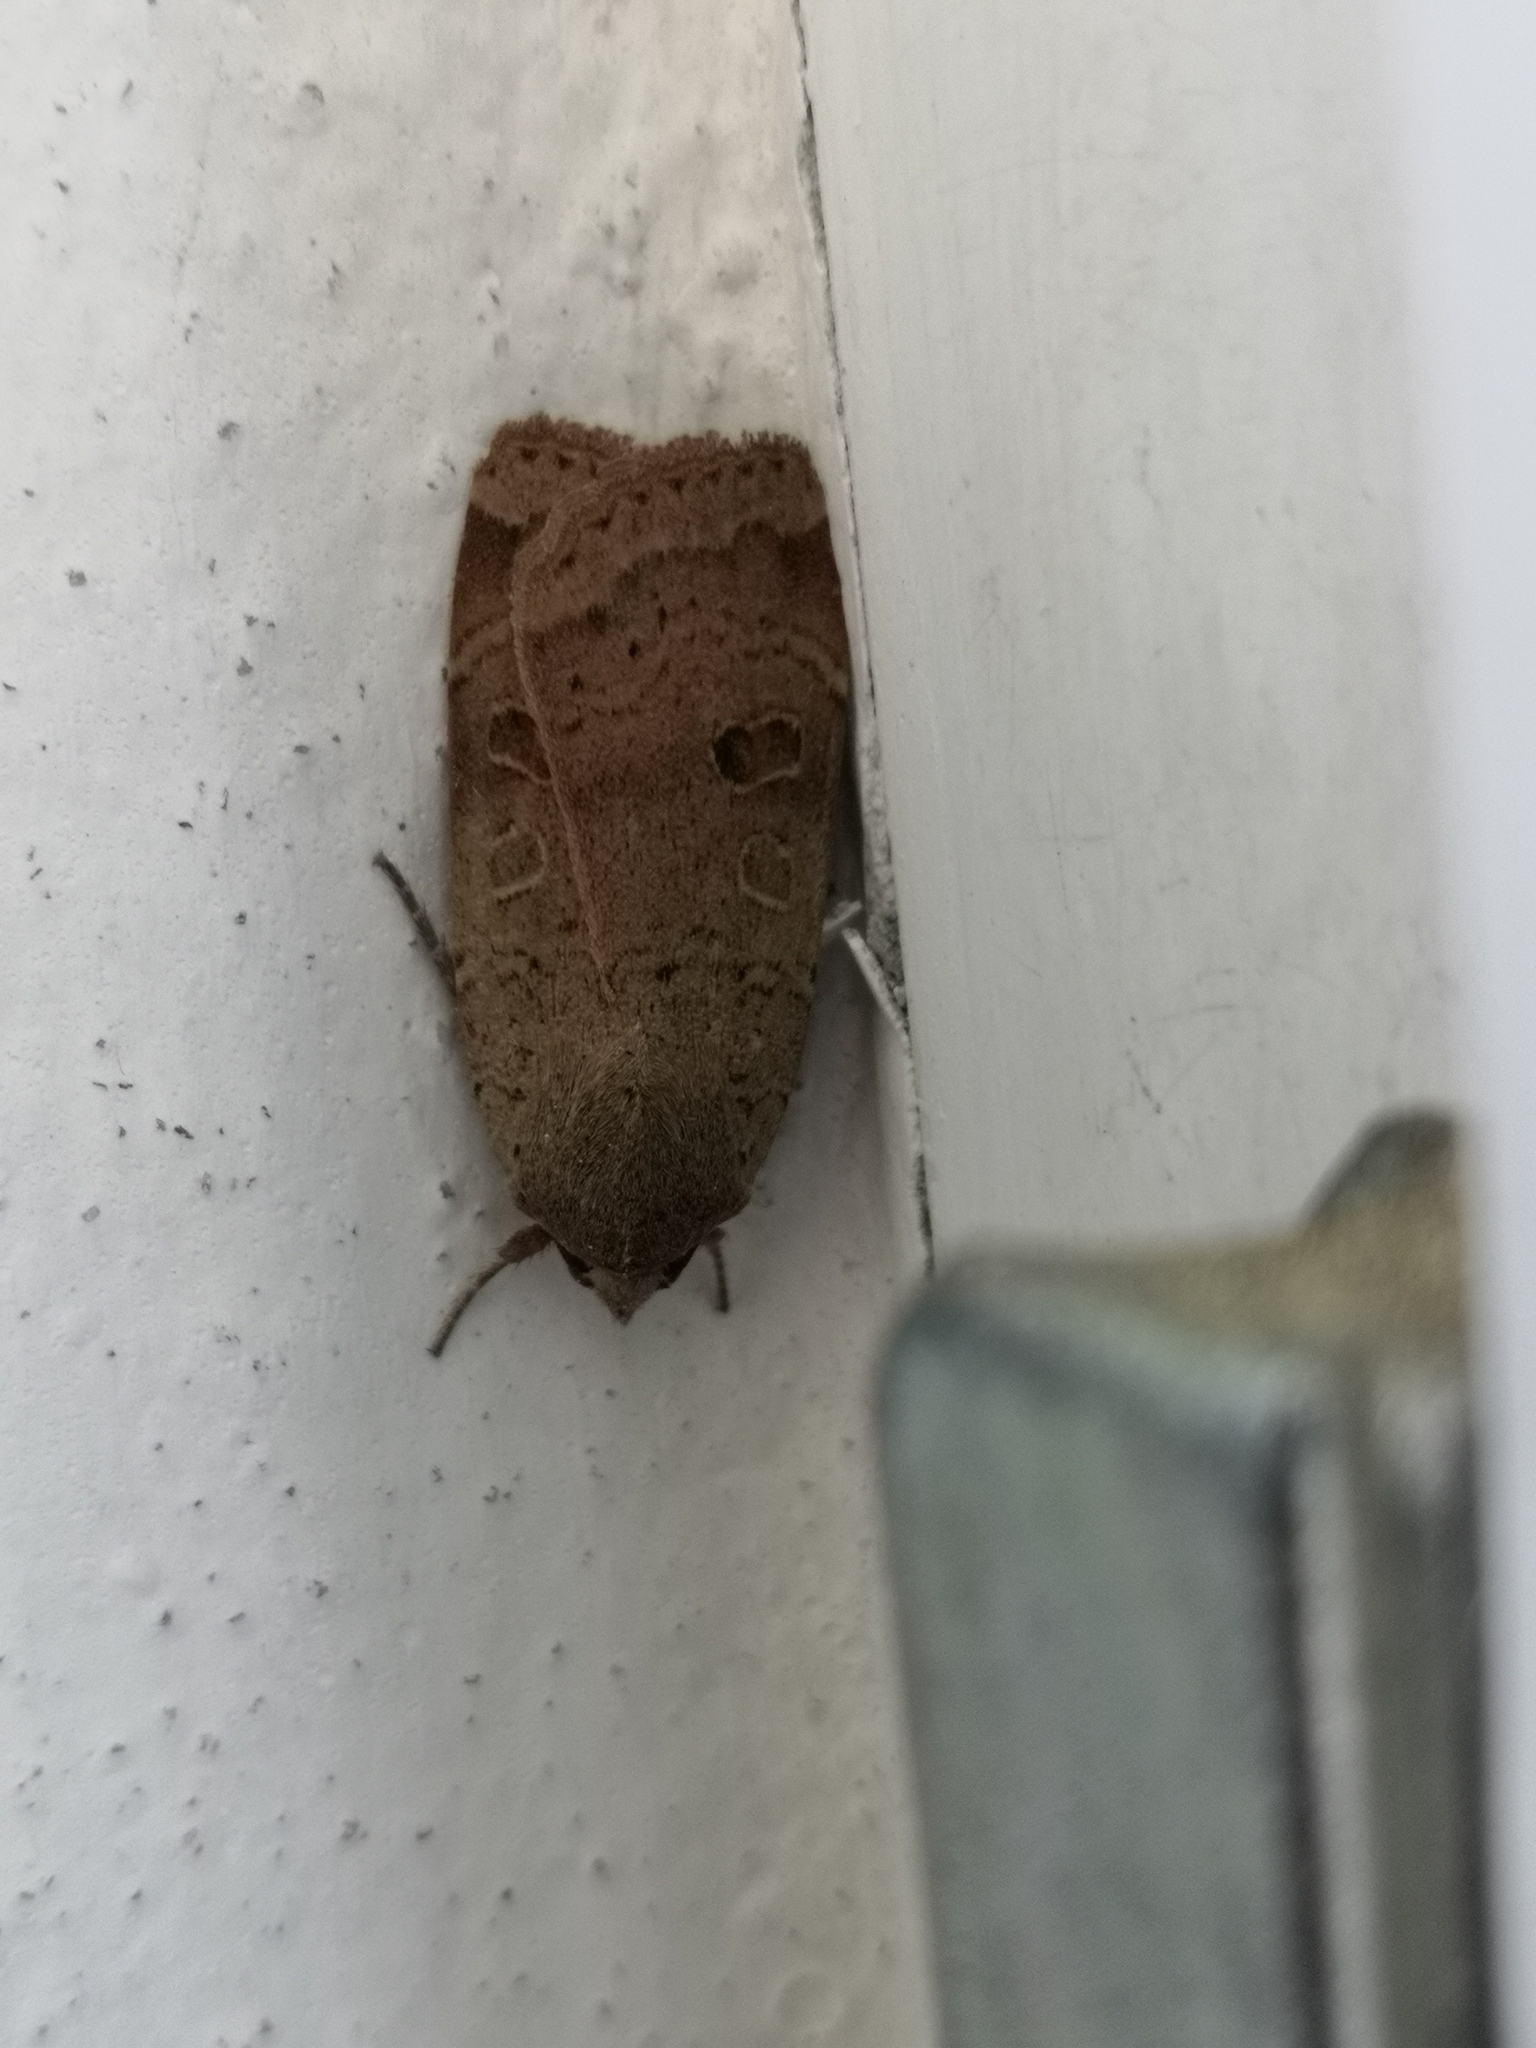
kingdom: Animalia
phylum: Arthropoda
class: Insecta
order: Lepidoptera
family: Noctuidae
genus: Noctua
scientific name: Noctua comes
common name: Lesser yellow underwing
